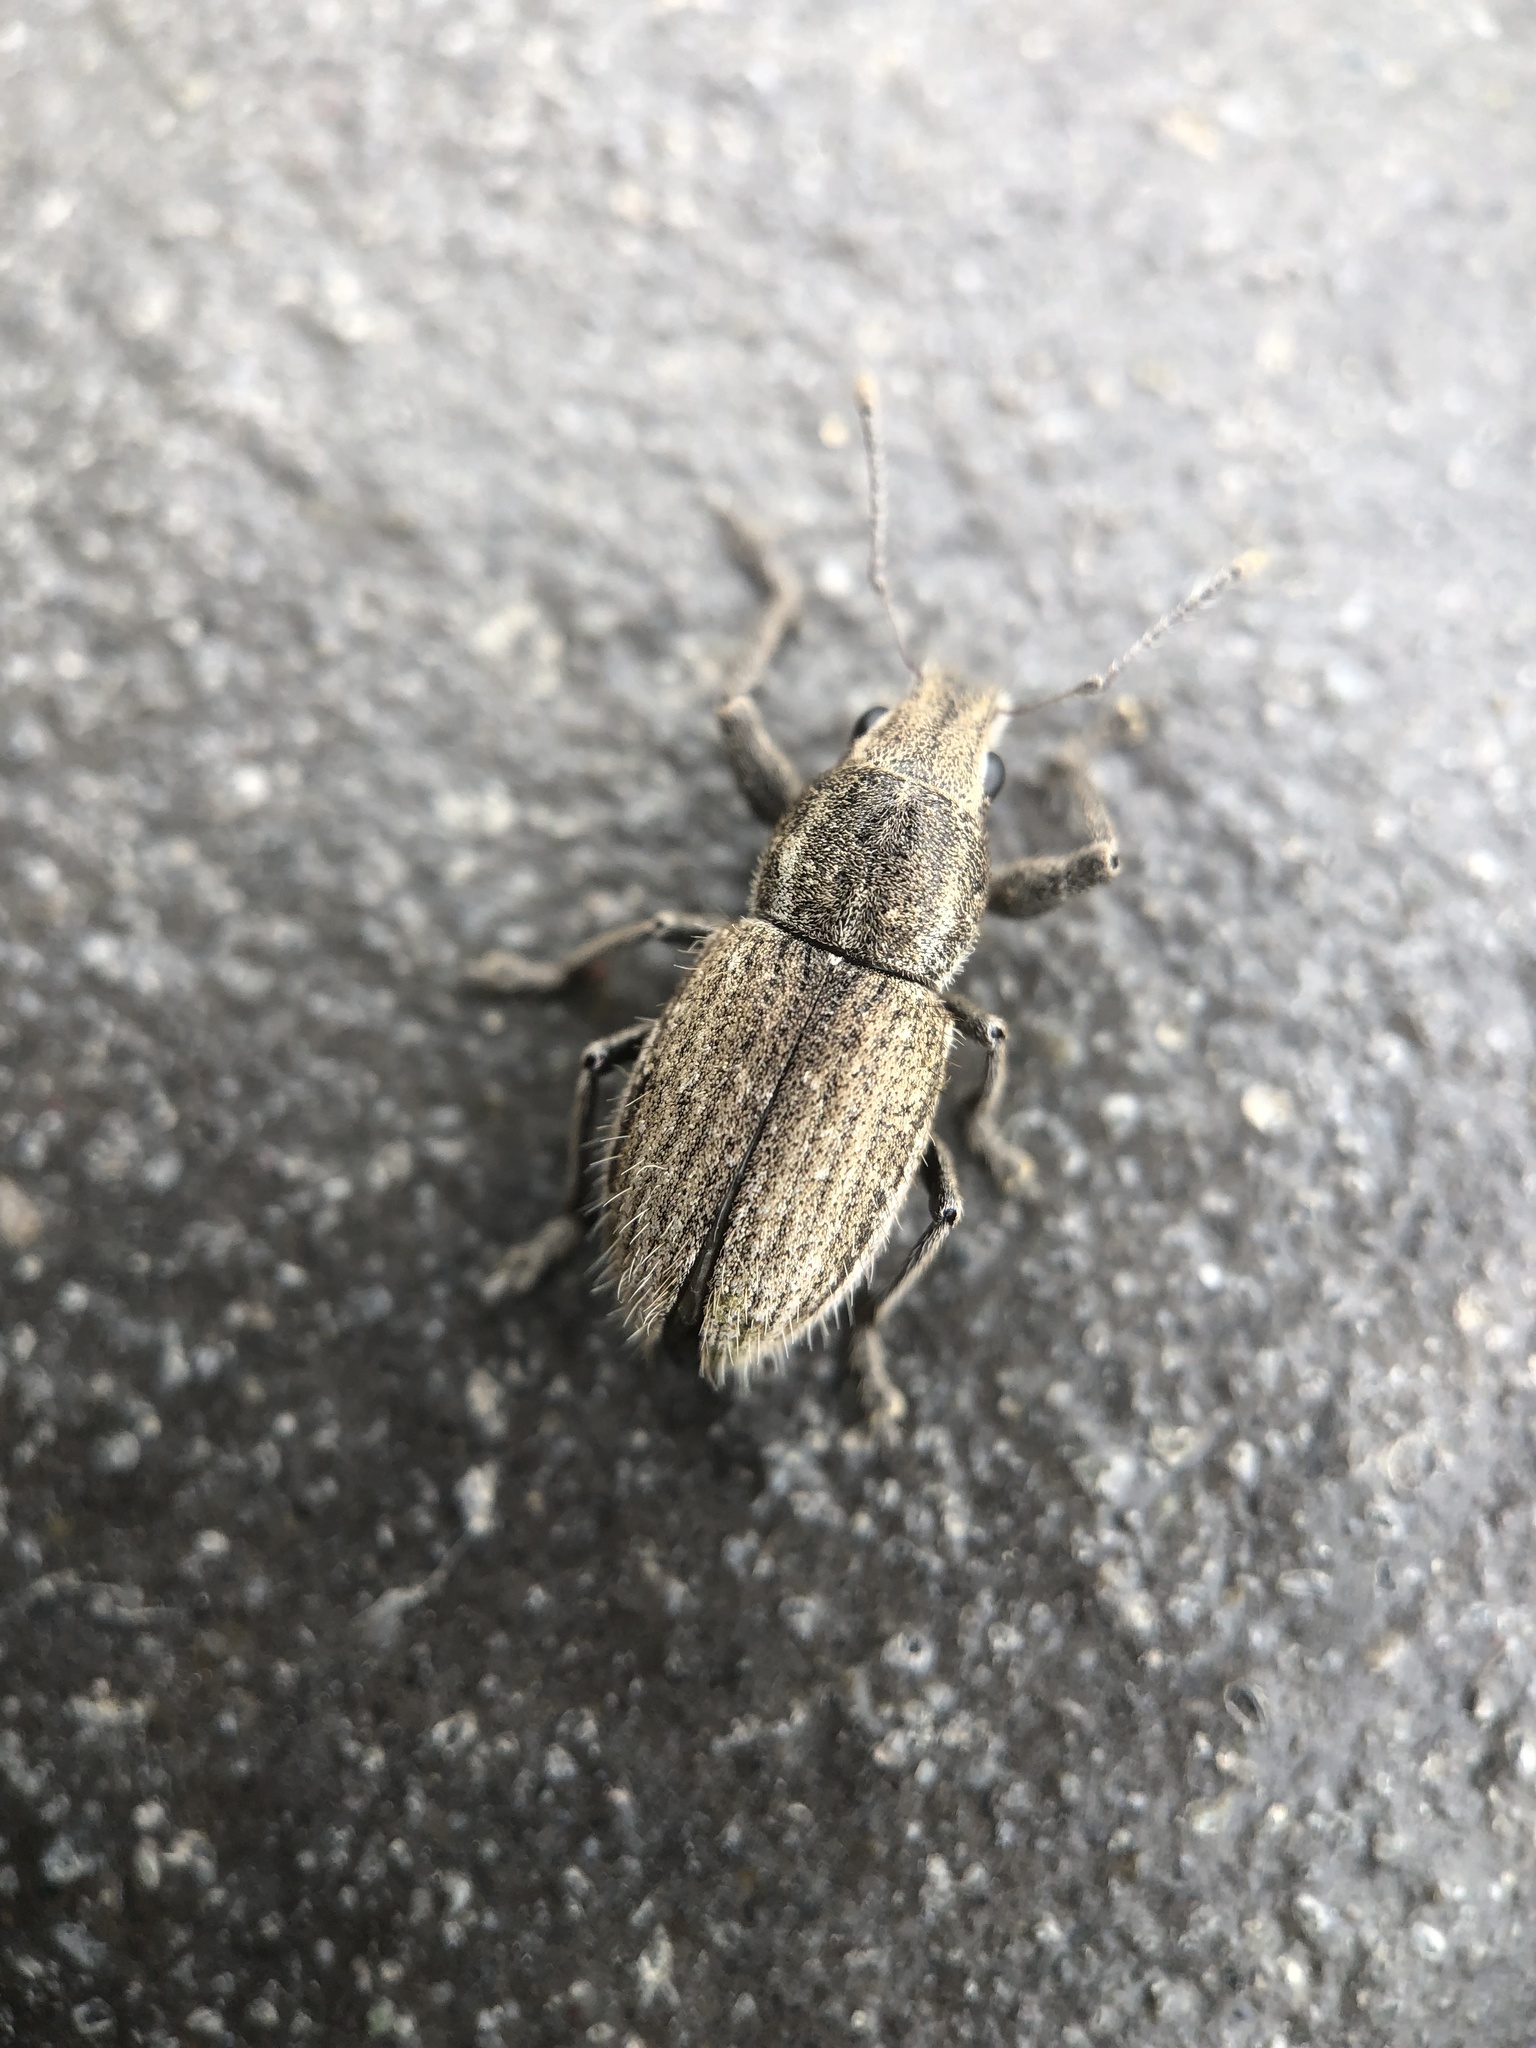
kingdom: Animalia
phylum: Arthropoda
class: Insecta
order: Coleoptera
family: Curculionidae
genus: Naupactus
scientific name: Naupactus leucoloma
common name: Whitefringed beetle
